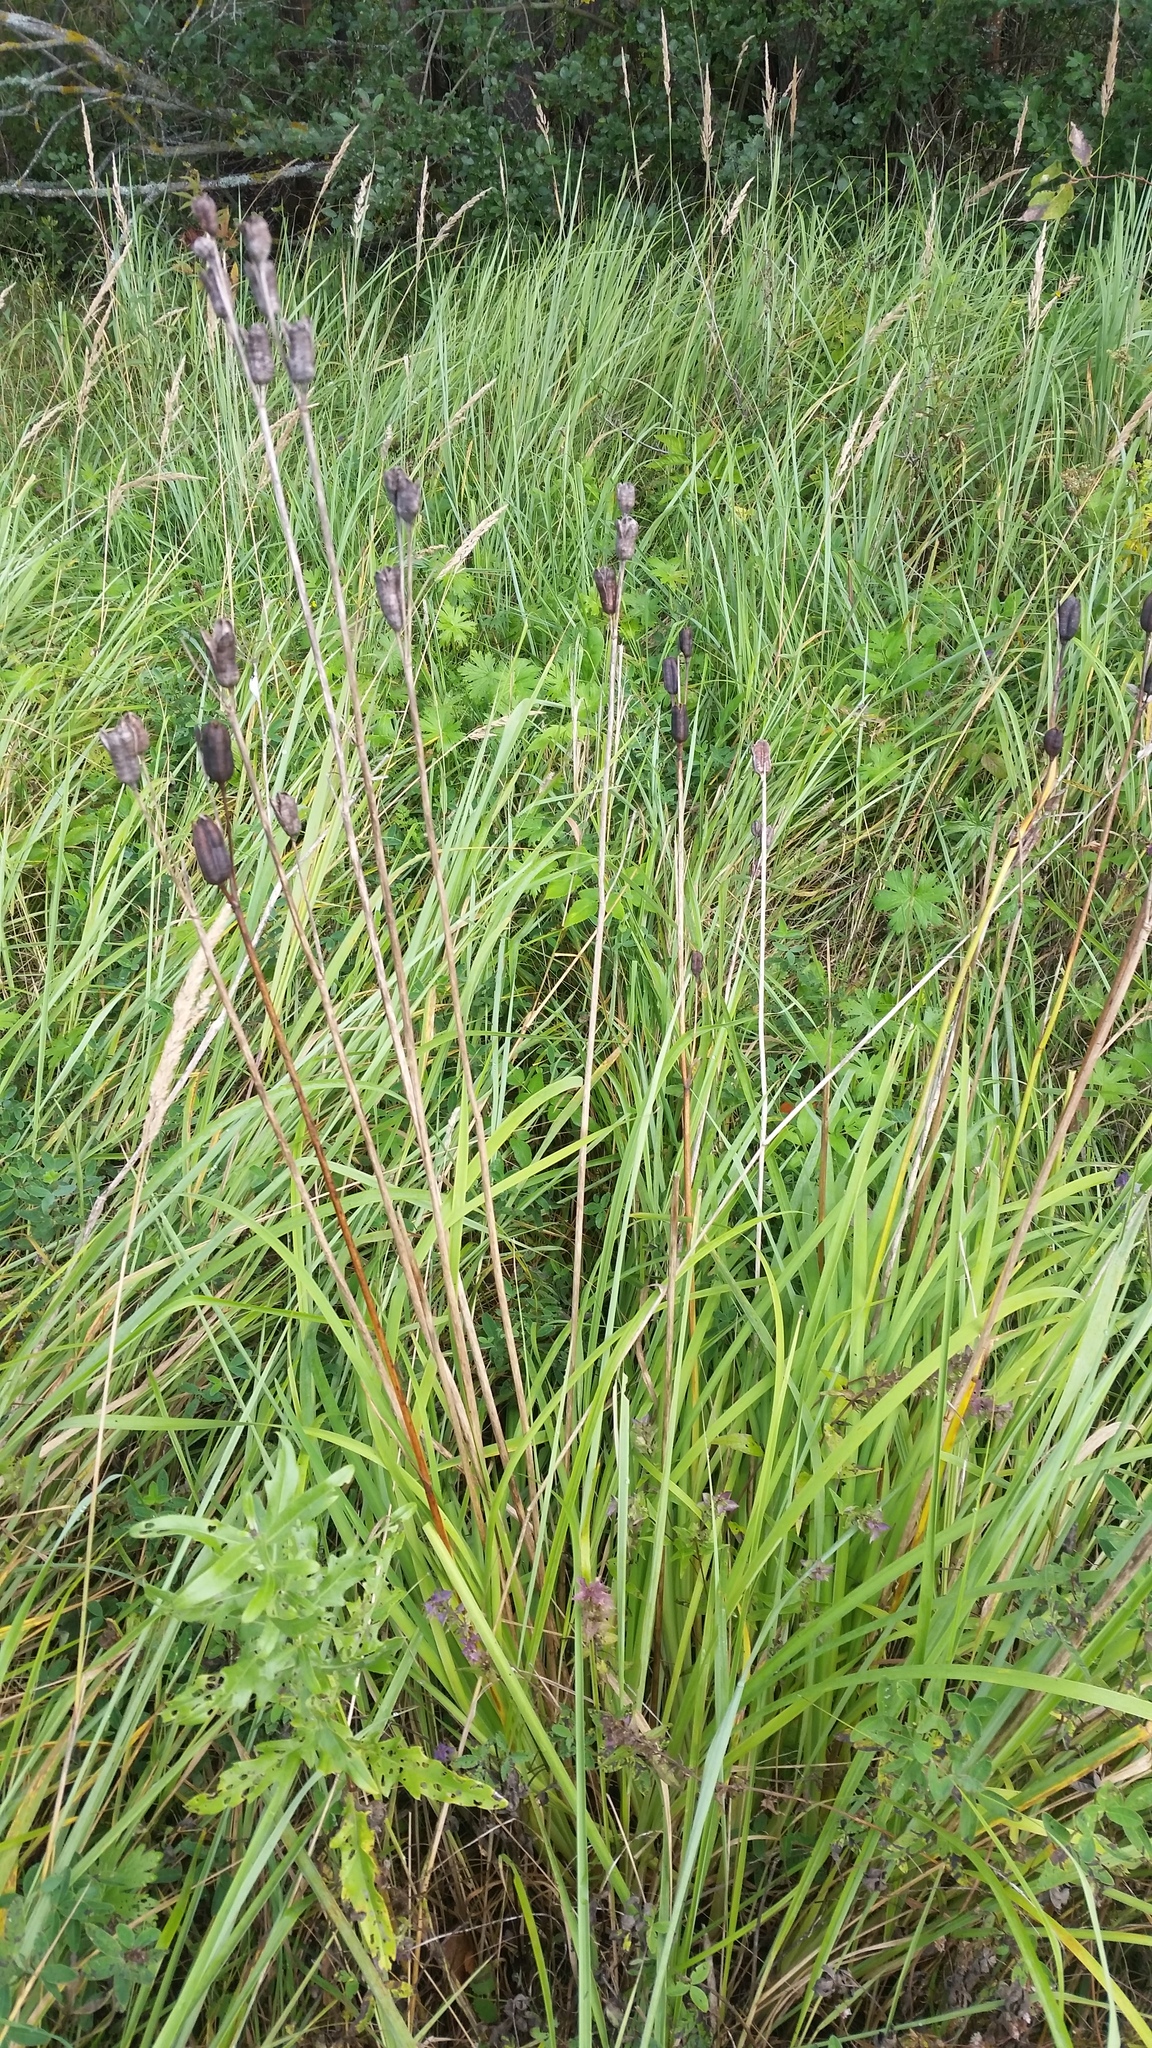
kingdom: Plantae
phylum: Tracheophyta
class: Liliopsida
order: Asparagales
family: Iridaceae
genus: Iris
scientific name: Iris sibirica
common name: Siberian iris
